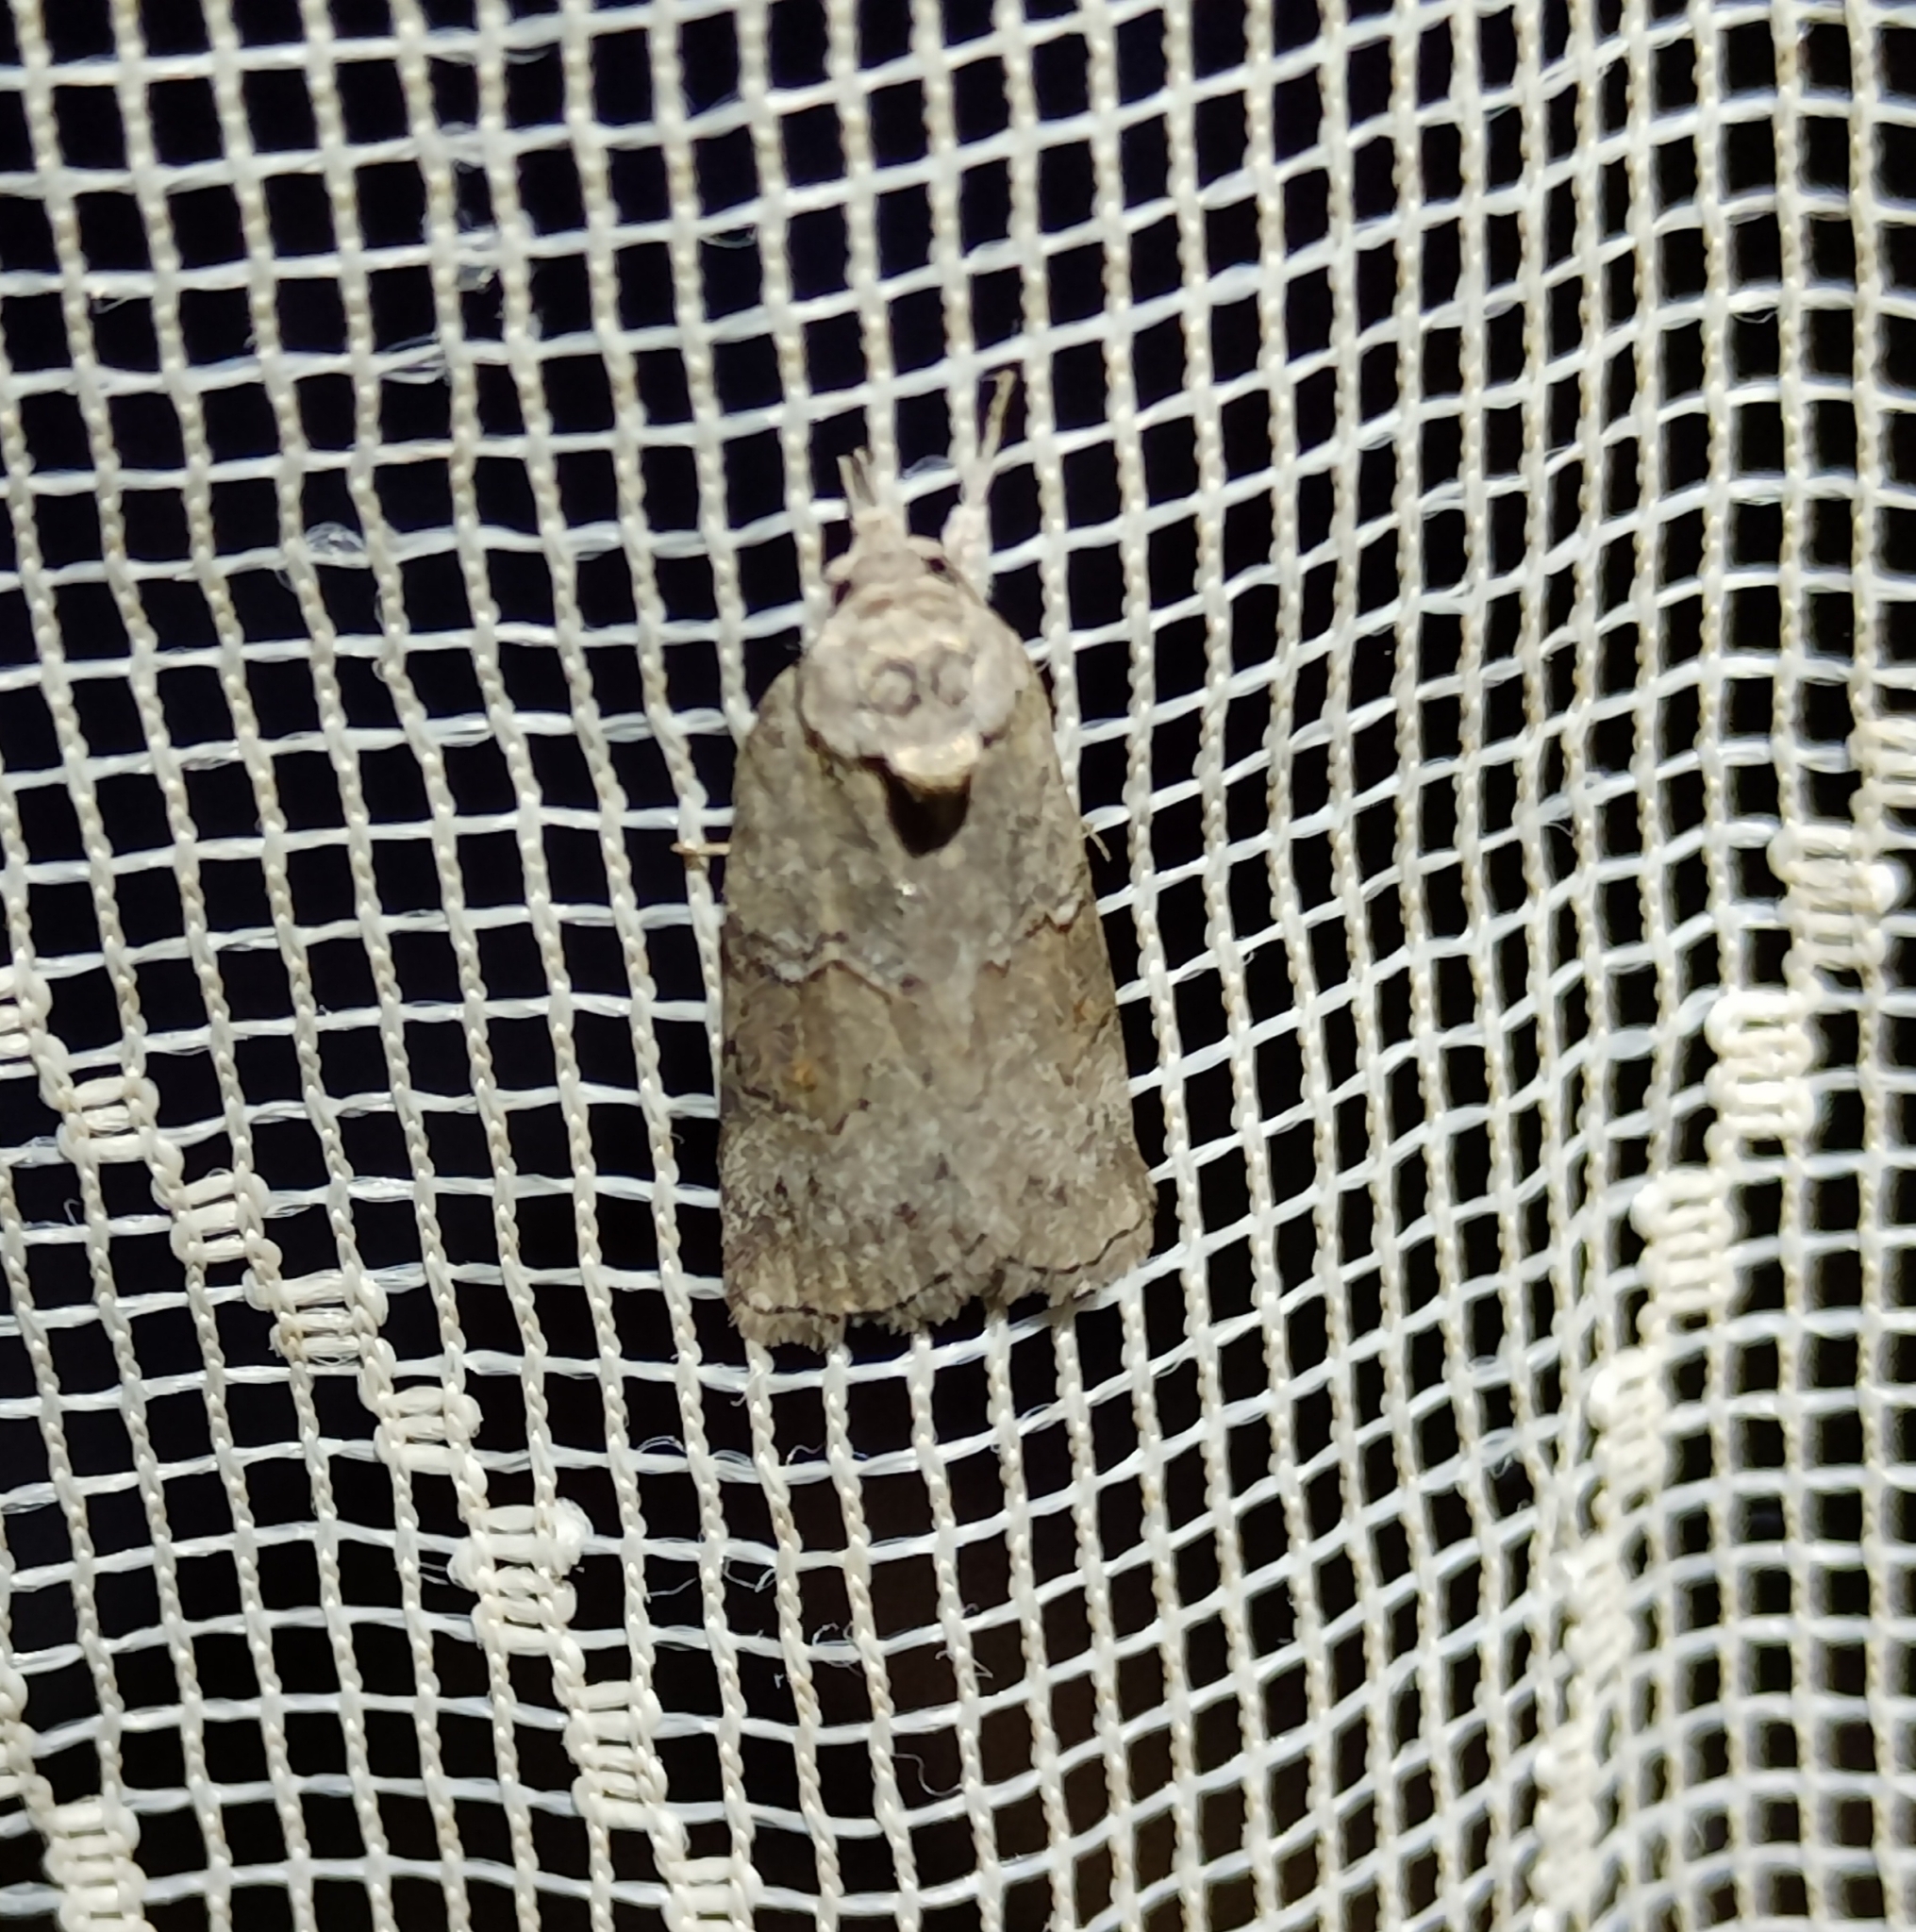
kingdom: Animalia
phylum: Arthropoda
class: Insecta
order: Lepidoptera
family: Nolidae
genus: Nycteola
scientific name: Nycteola asiatica
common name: Eastern nycteoline
